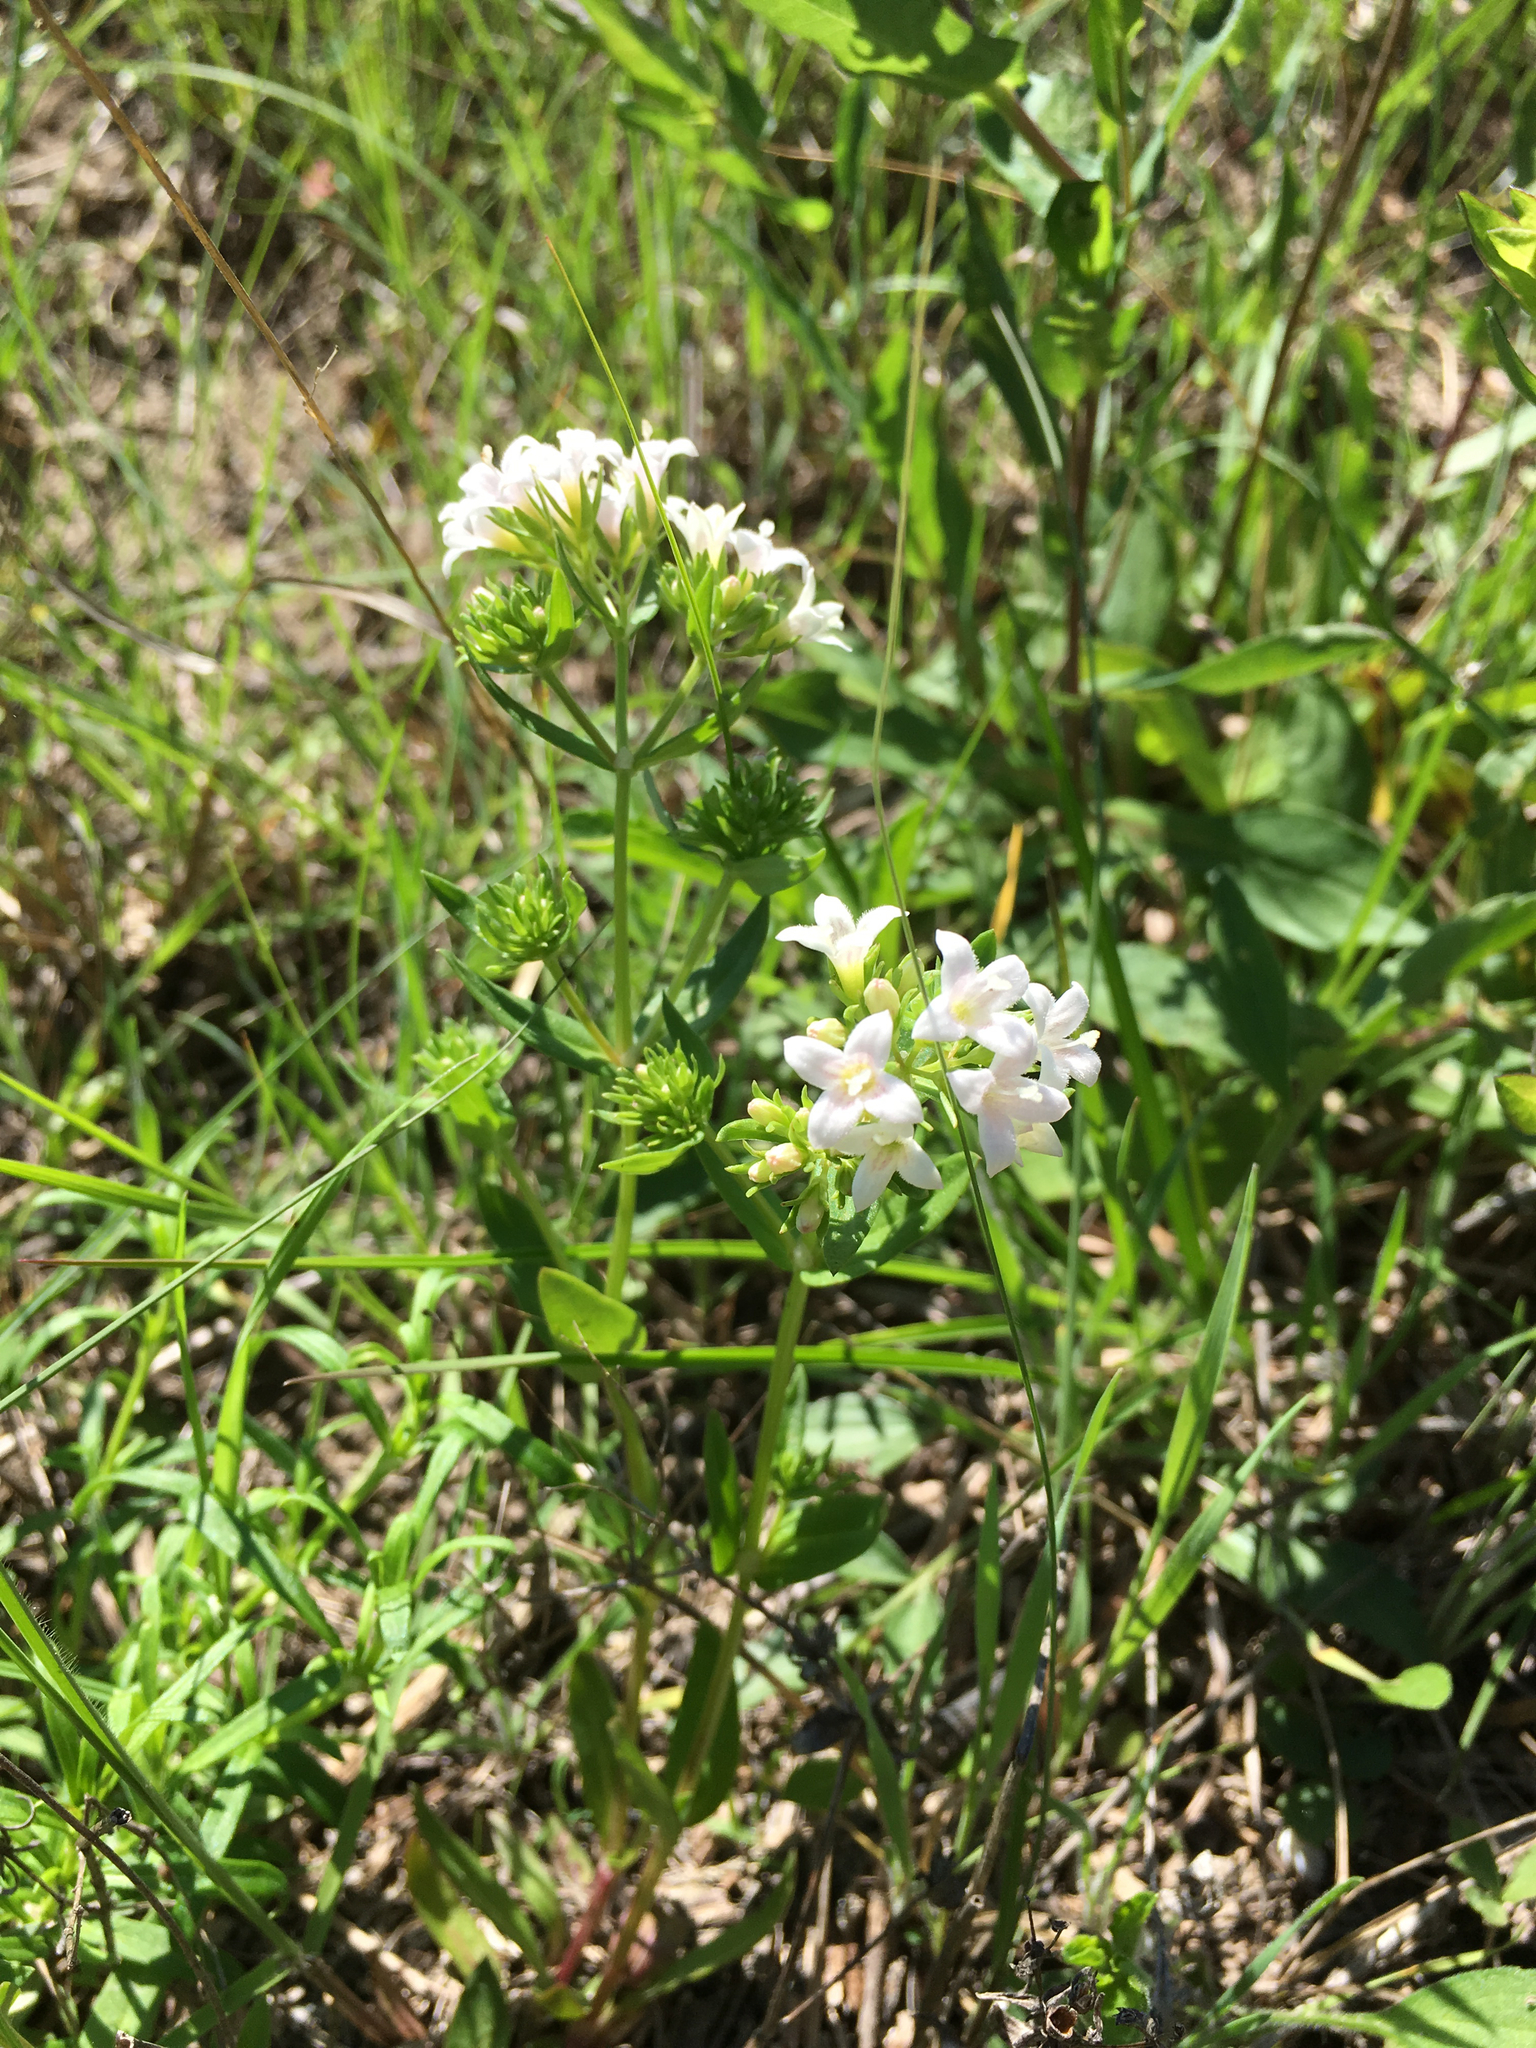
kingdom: Plantae
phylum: Tracheophyta
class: Magnoliopsida
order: Gentianales
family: Rubiaceae
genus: Houstonia
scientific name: Houstonia purpurea
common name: Summer bluet
